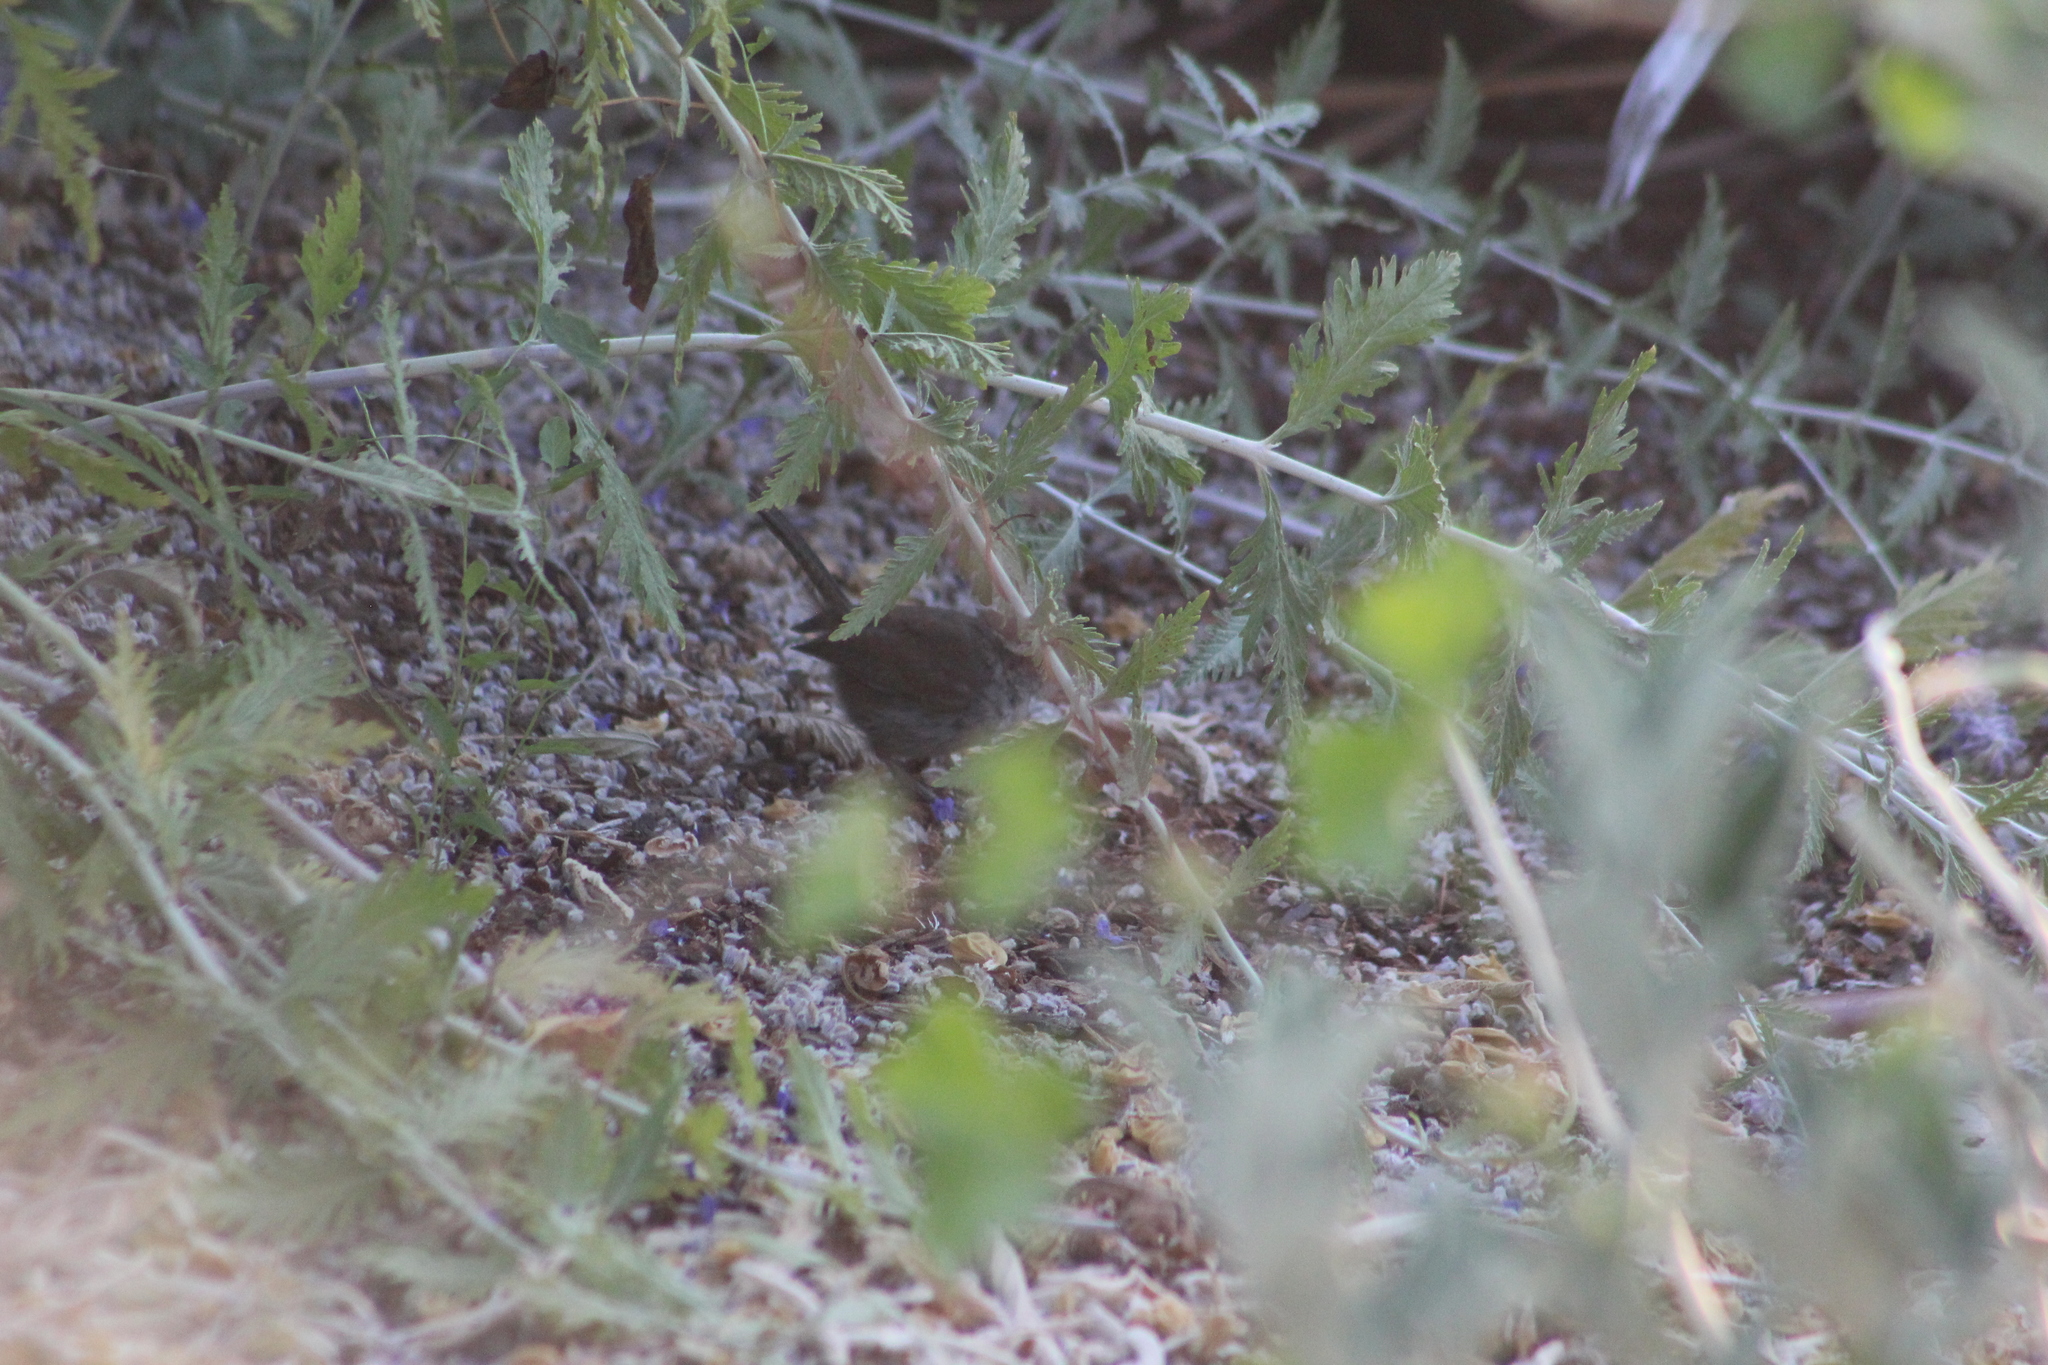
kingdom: Animalia
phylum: Chordata
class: Aves
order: Passeriformes
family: Troglodytidae
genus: Thryomanes
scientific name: Thryomanes bewickii
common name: Bewick's wren
